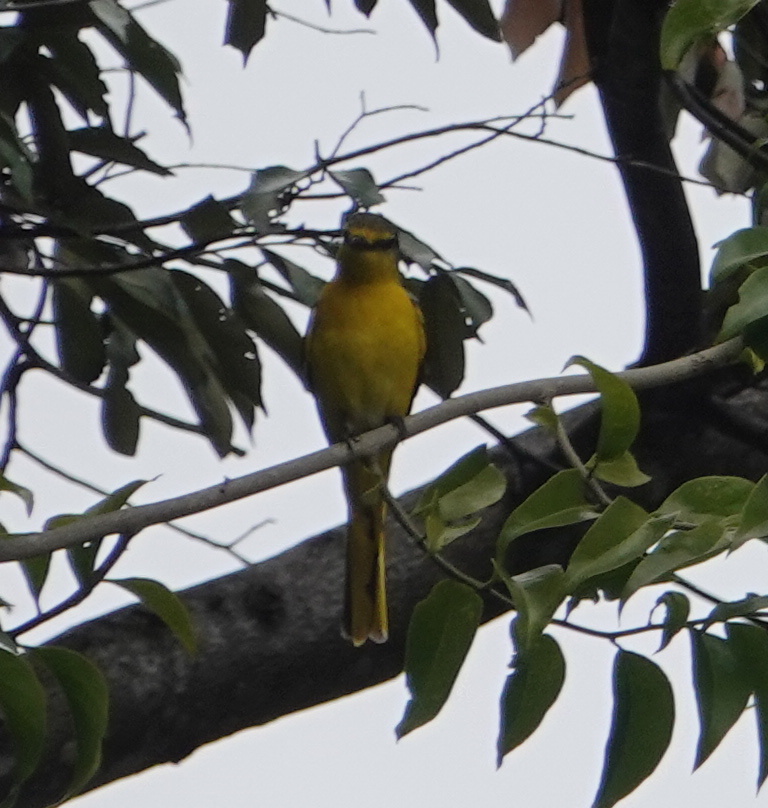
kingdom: Animalia
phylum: Chordata
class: Aves
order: Passeriformes
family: Campephagidae
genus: Pericrocotus
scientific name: Pericrocotus flammeus
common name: Orange minivet
